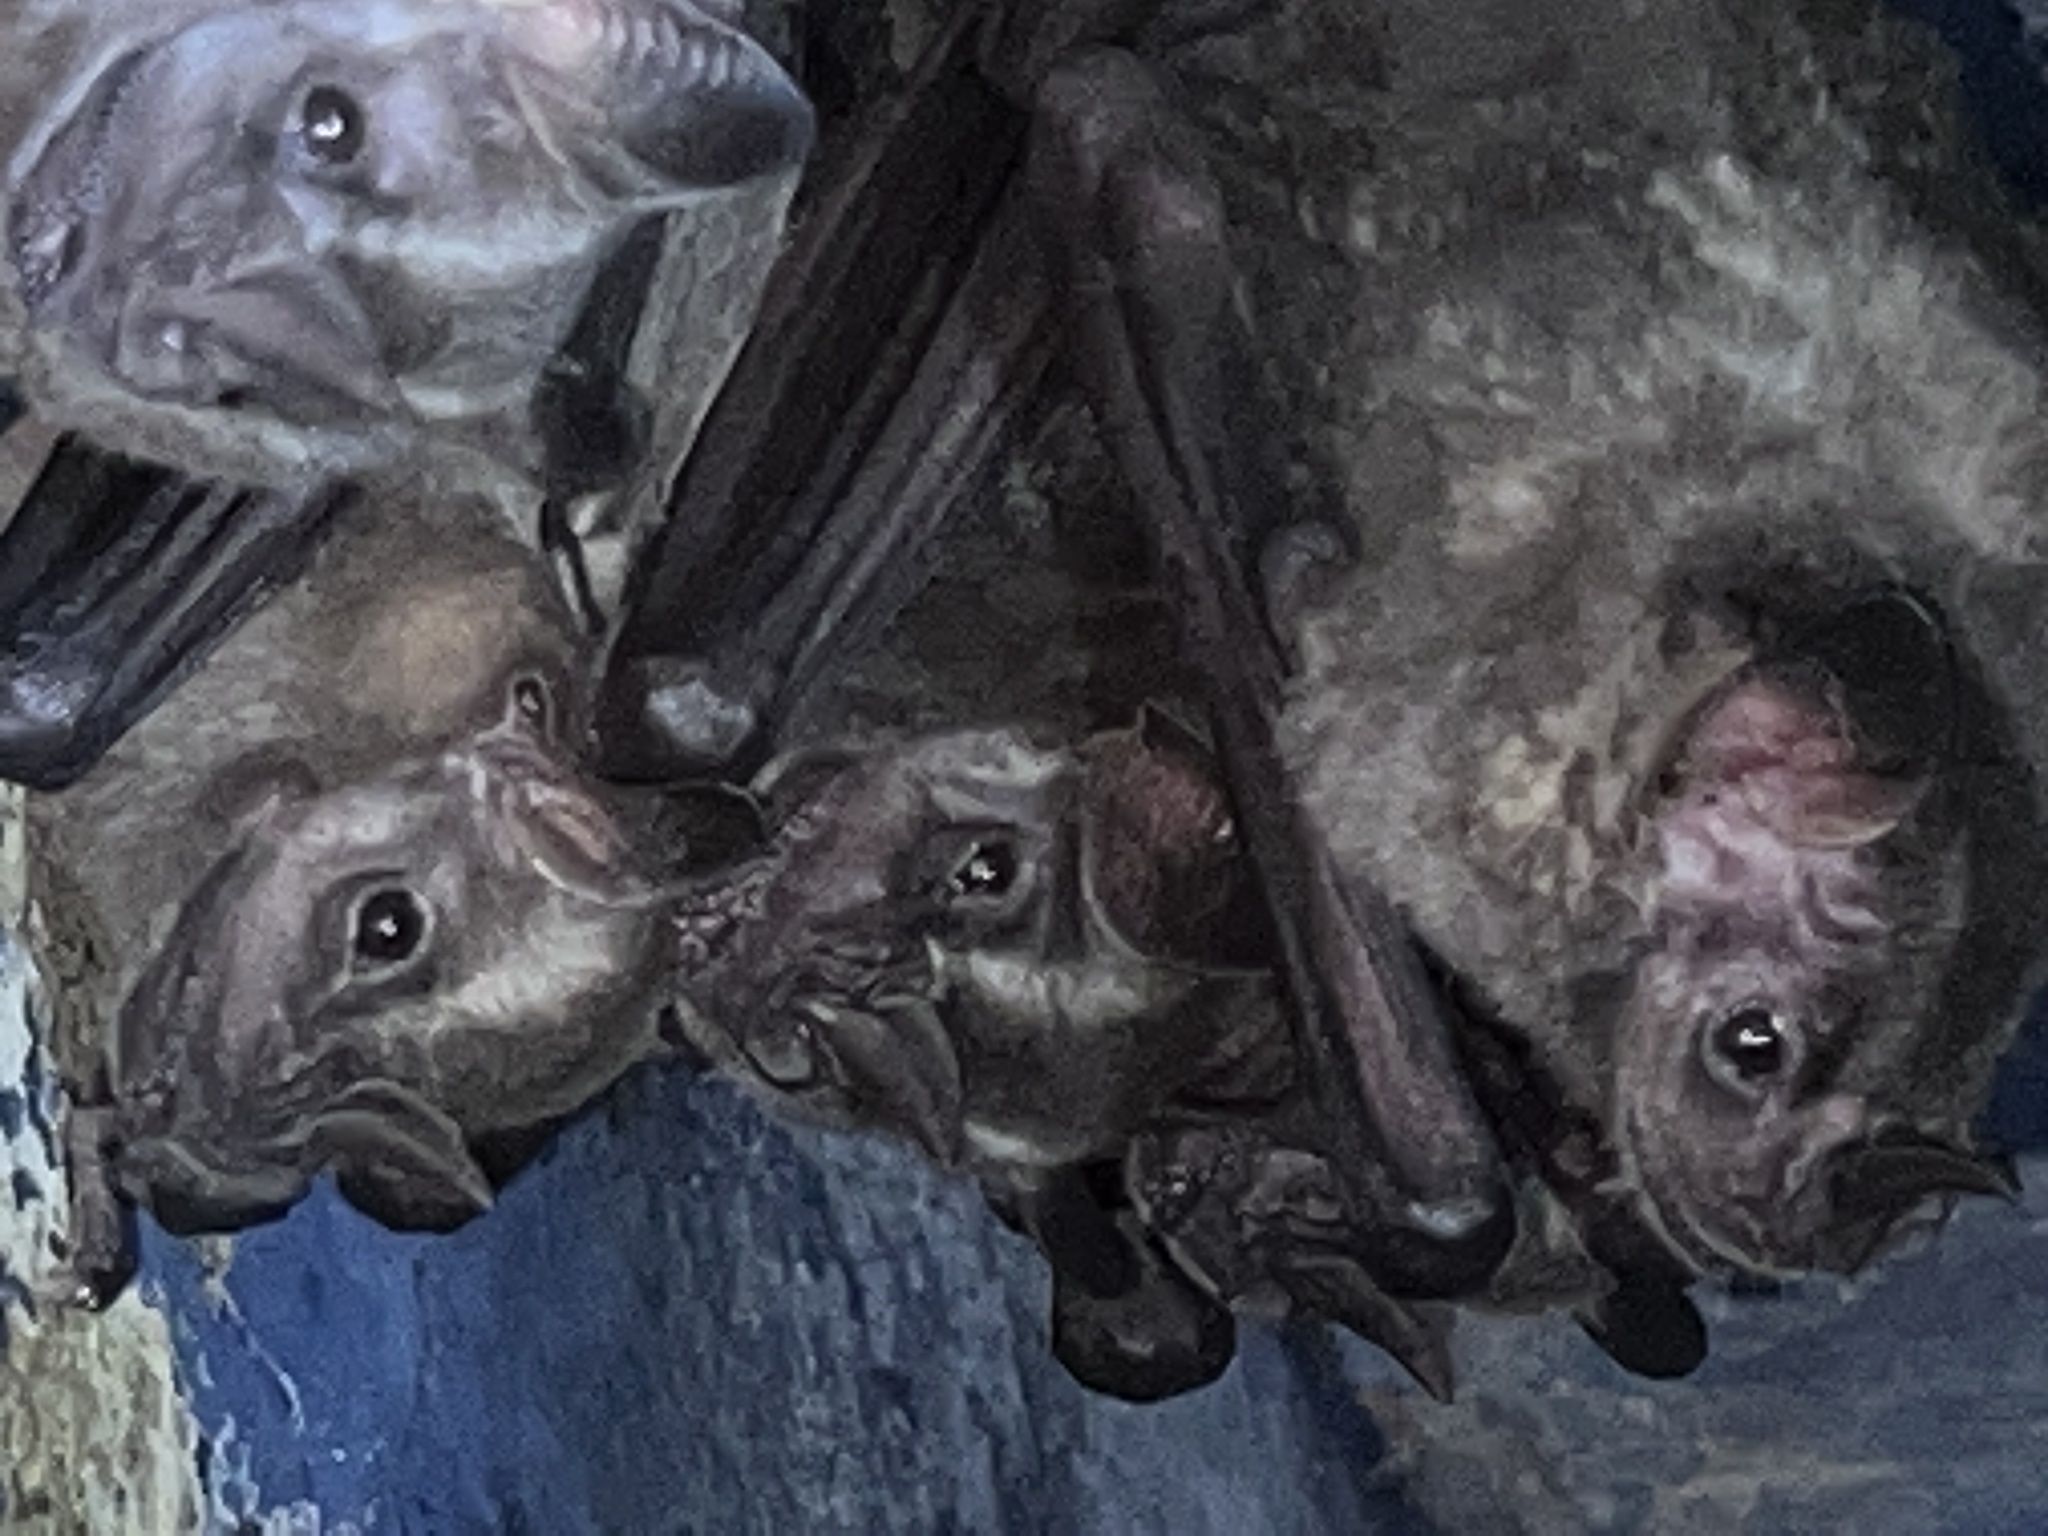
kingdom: Animalia
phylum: Chordata
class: Mammalia
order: Chiroptera
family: Phyllostomidae
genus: Artibeus
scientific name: Artibeus lituratus
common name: Great fruit-eating bat
